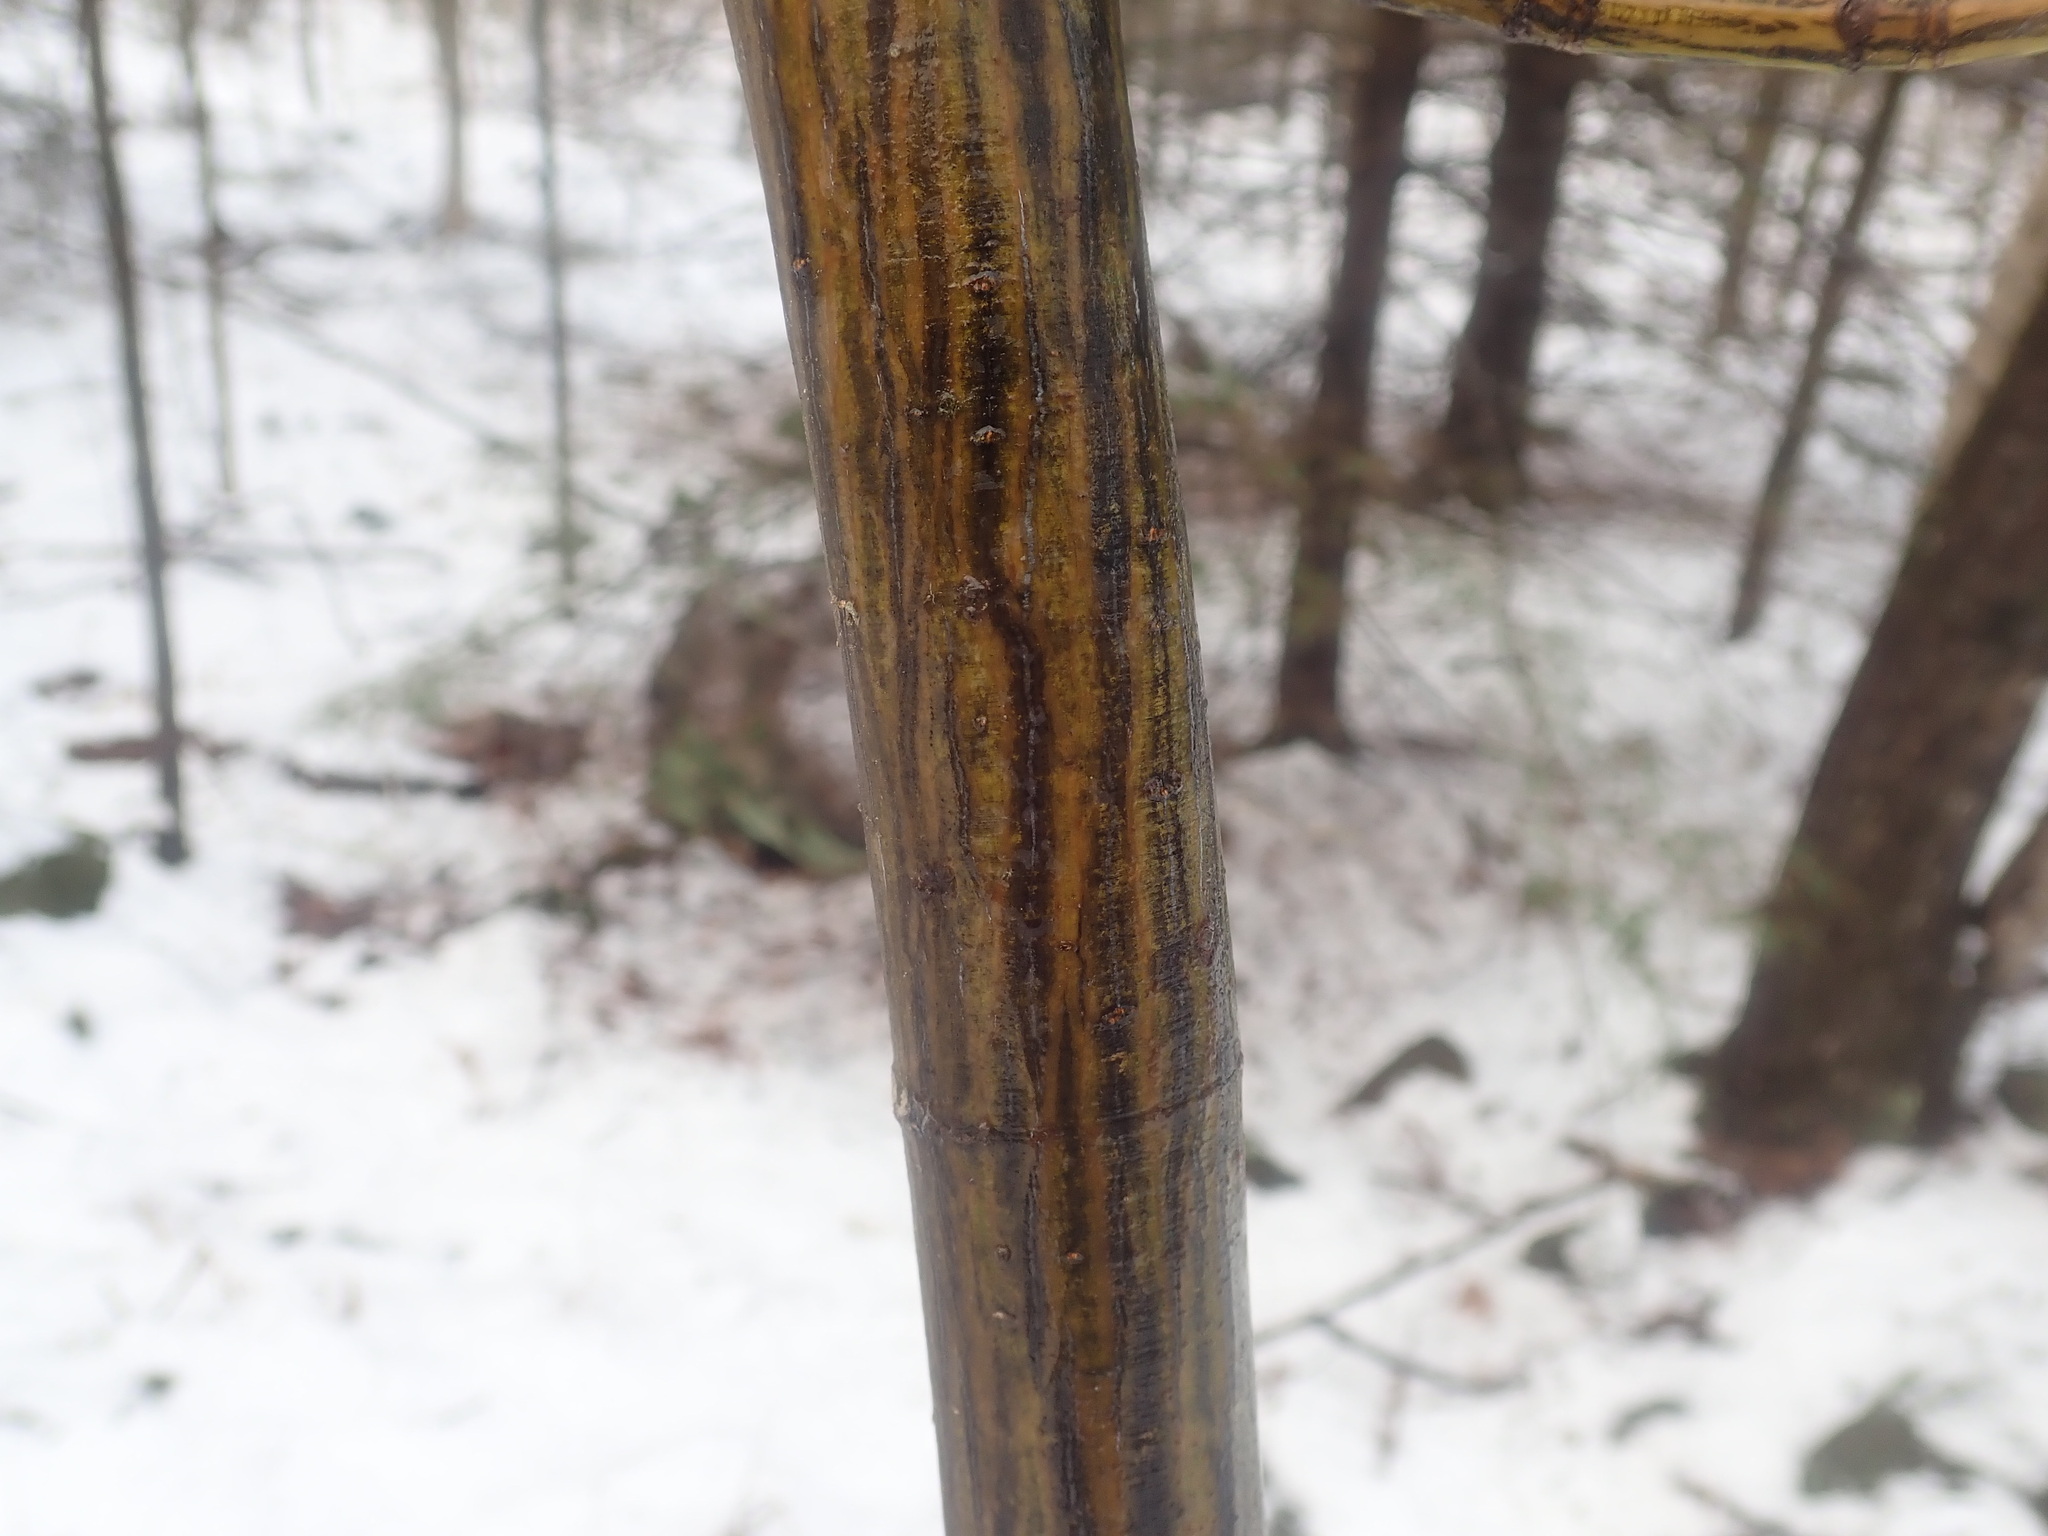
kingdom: Plantae
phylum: Tracheophyta
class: Magnoliopsida
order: Sapindales
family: Sapindaceae
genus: Acer
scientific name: Acer pensylvanicum
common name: Moosewood
